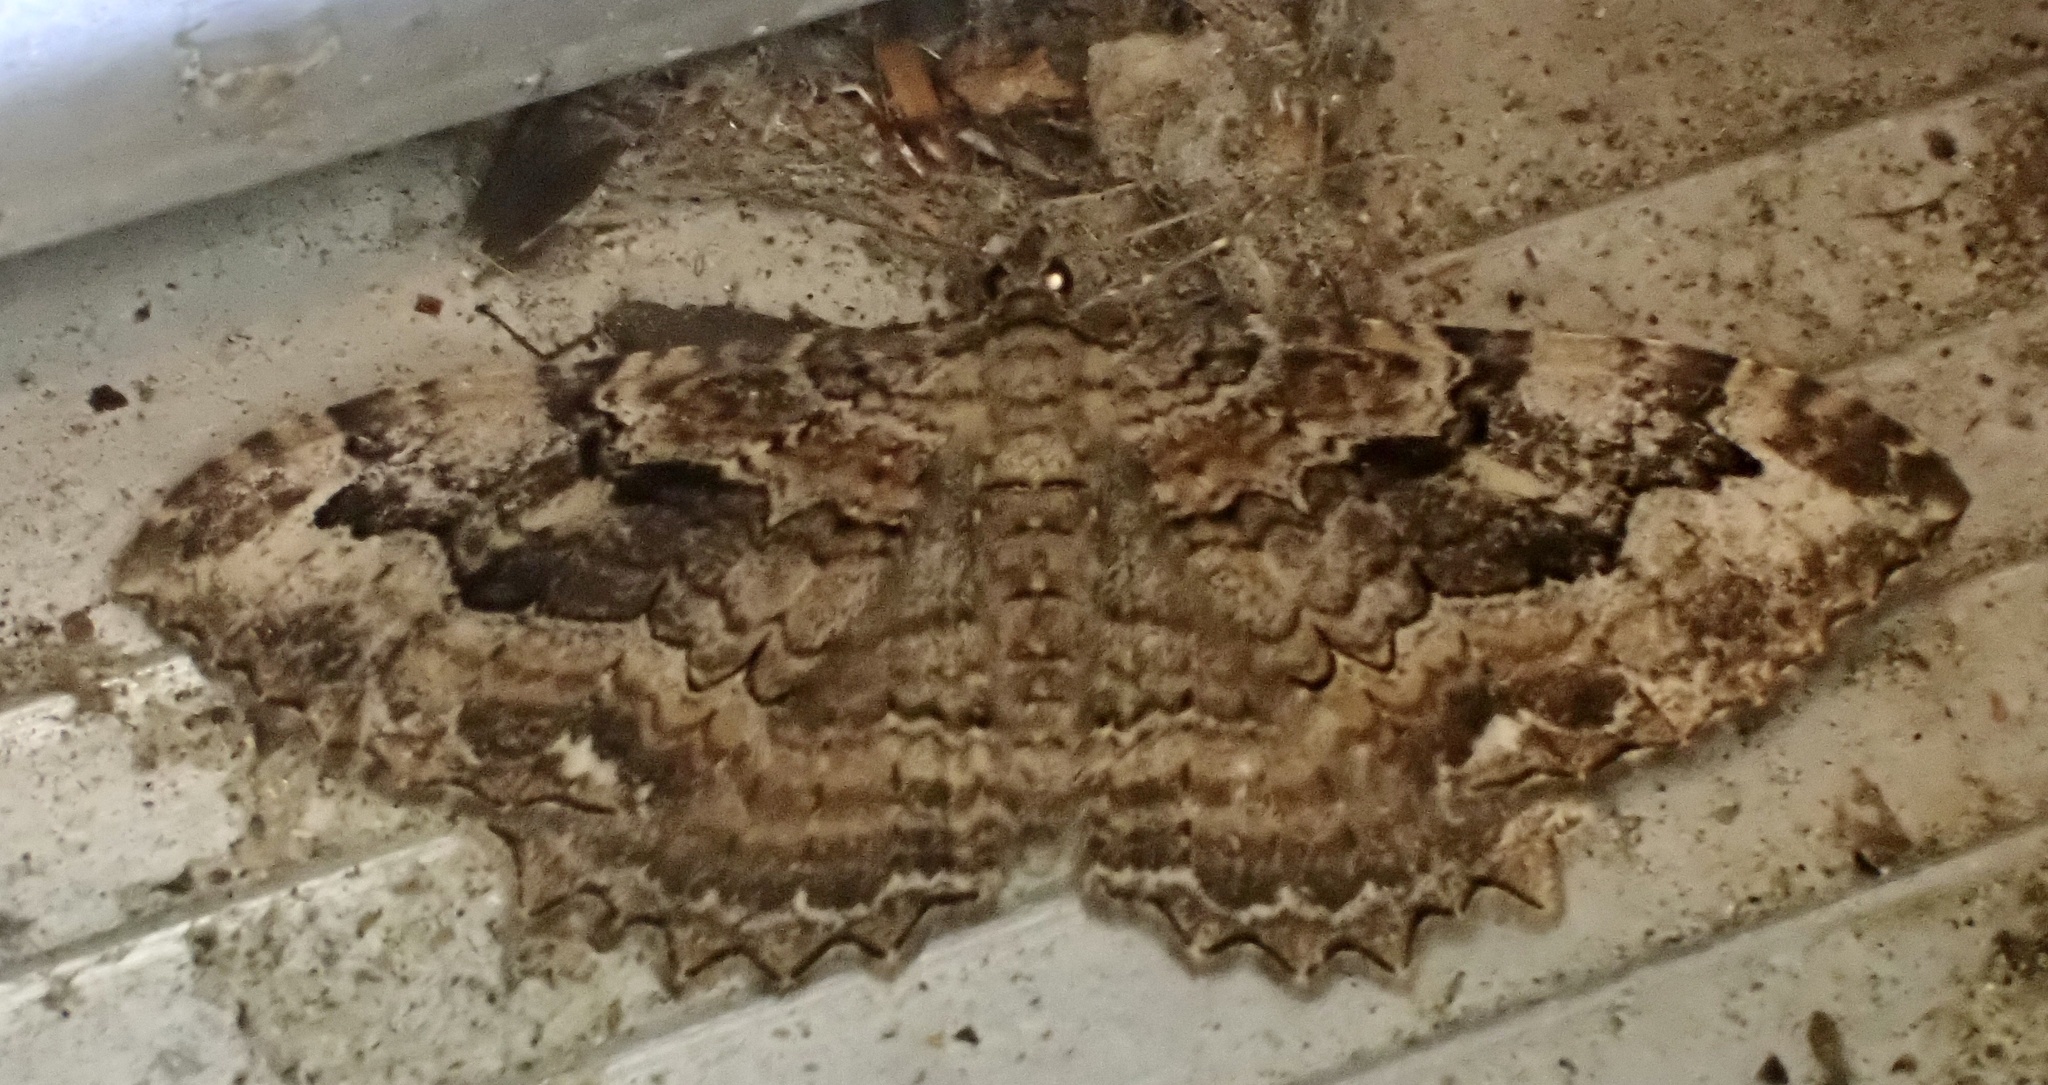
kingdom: Animalia
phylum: Arthropoda
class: Insecta
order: Lepidoptera
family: Geometridae
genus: Rheumaptera
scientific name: Rheumaptera
